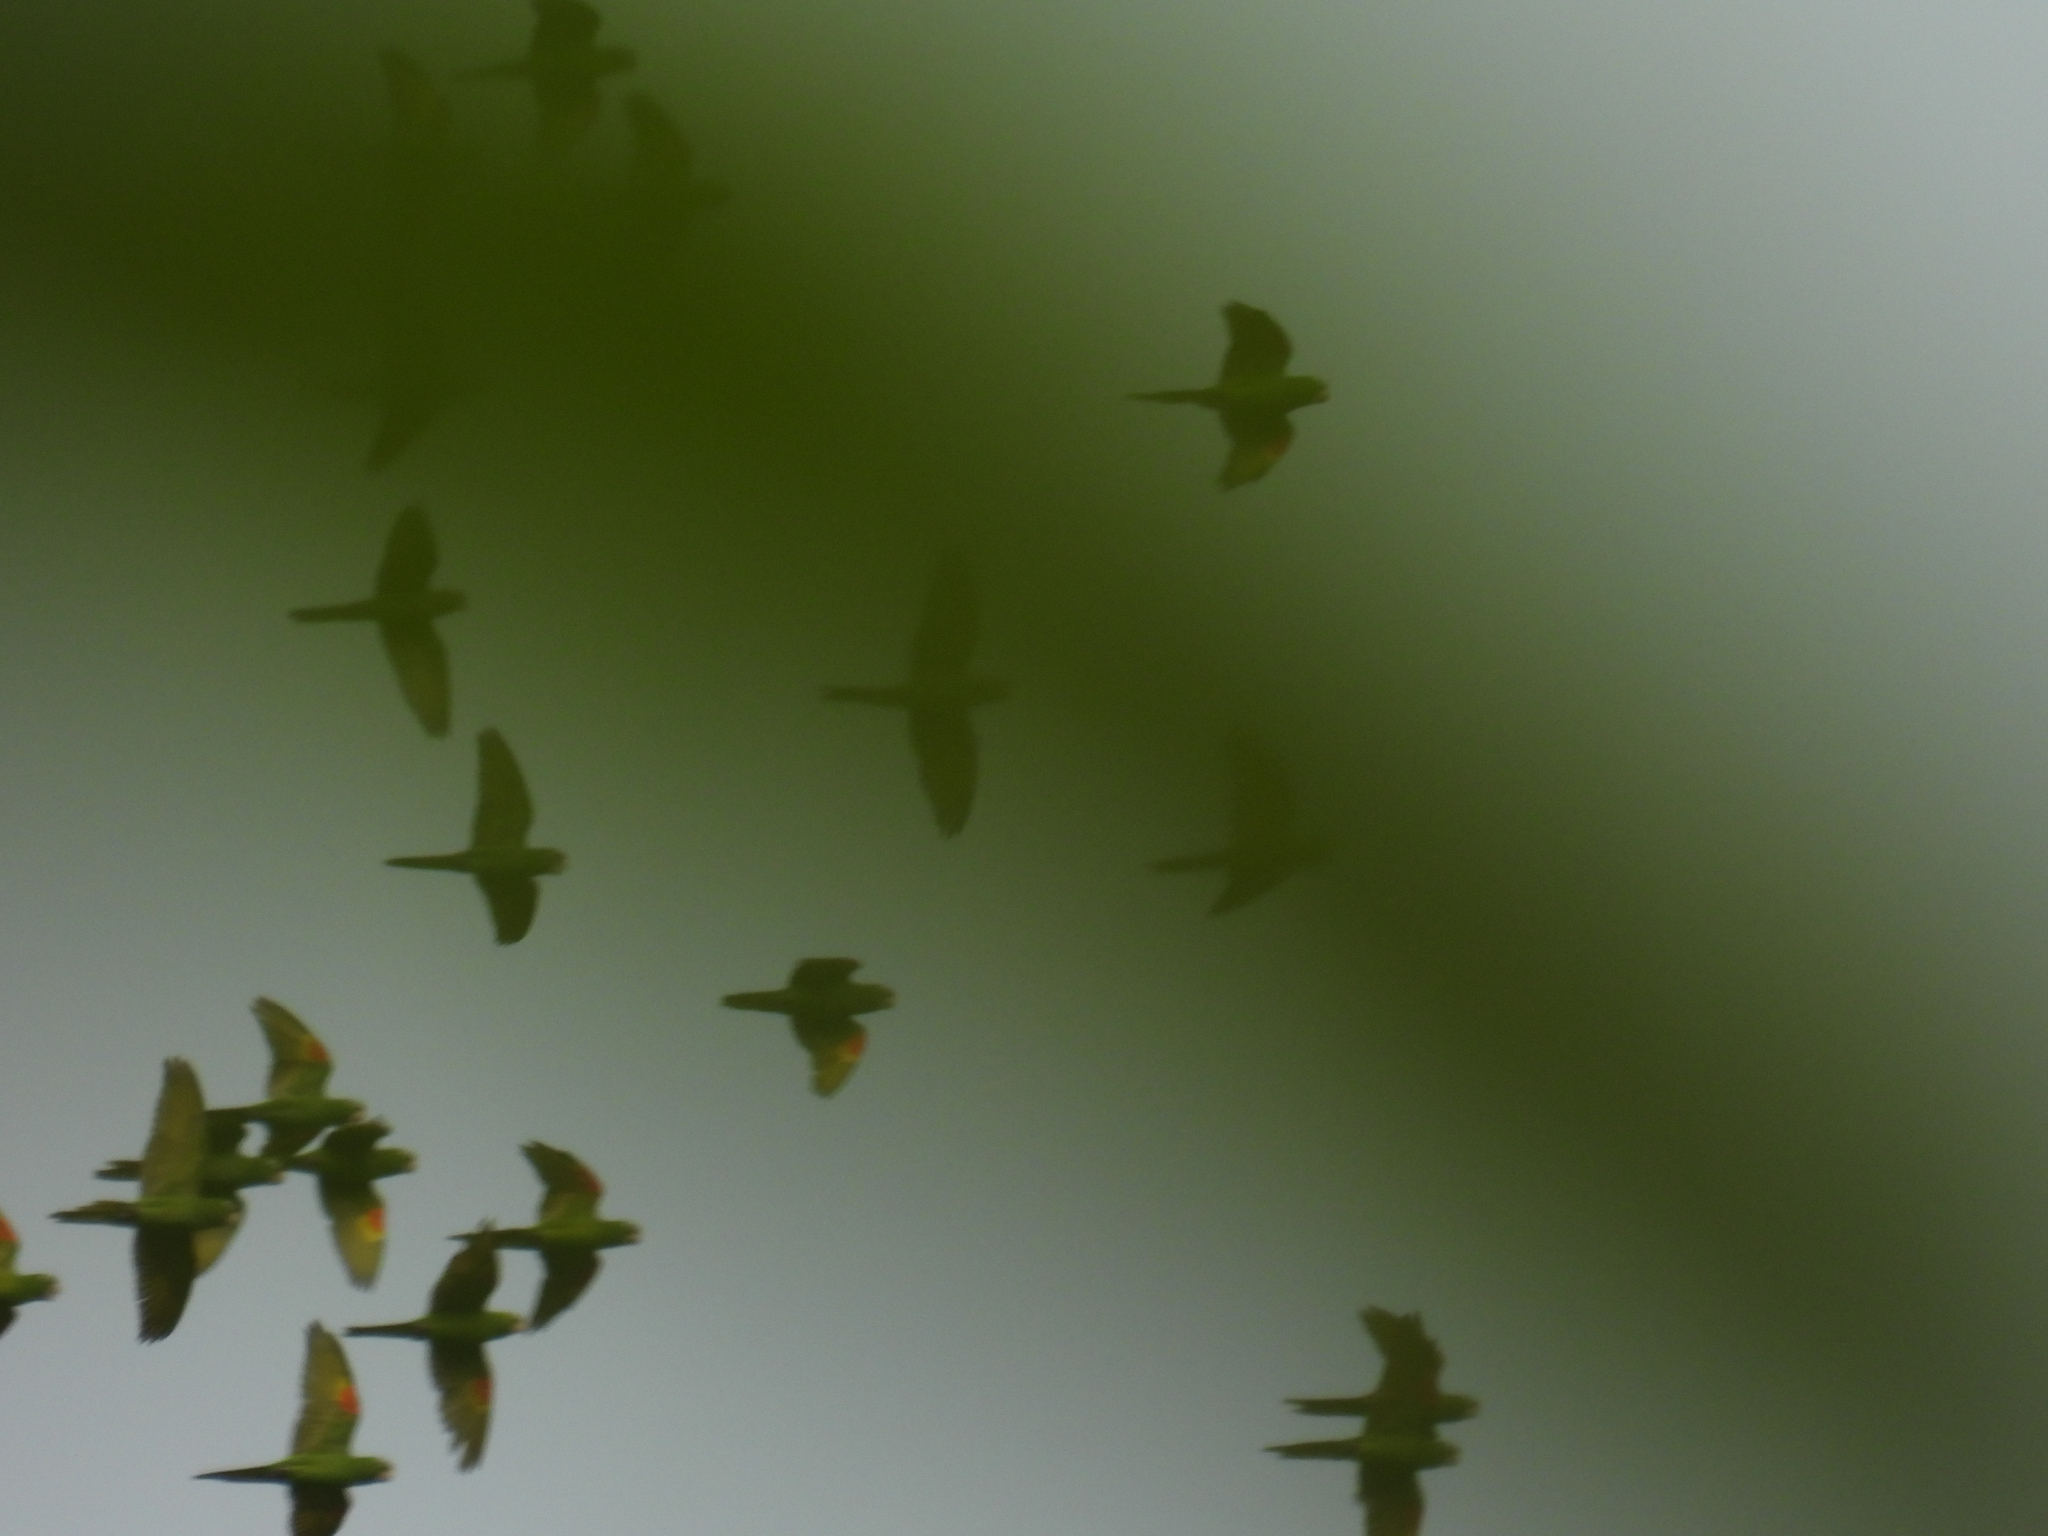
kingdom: Animalia
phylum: Chordata
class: Aves
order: Psittaciformes
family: Psittacidae
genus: Aratinga
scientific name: Aratinga finschi
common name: Crimson-fronted parakeet
